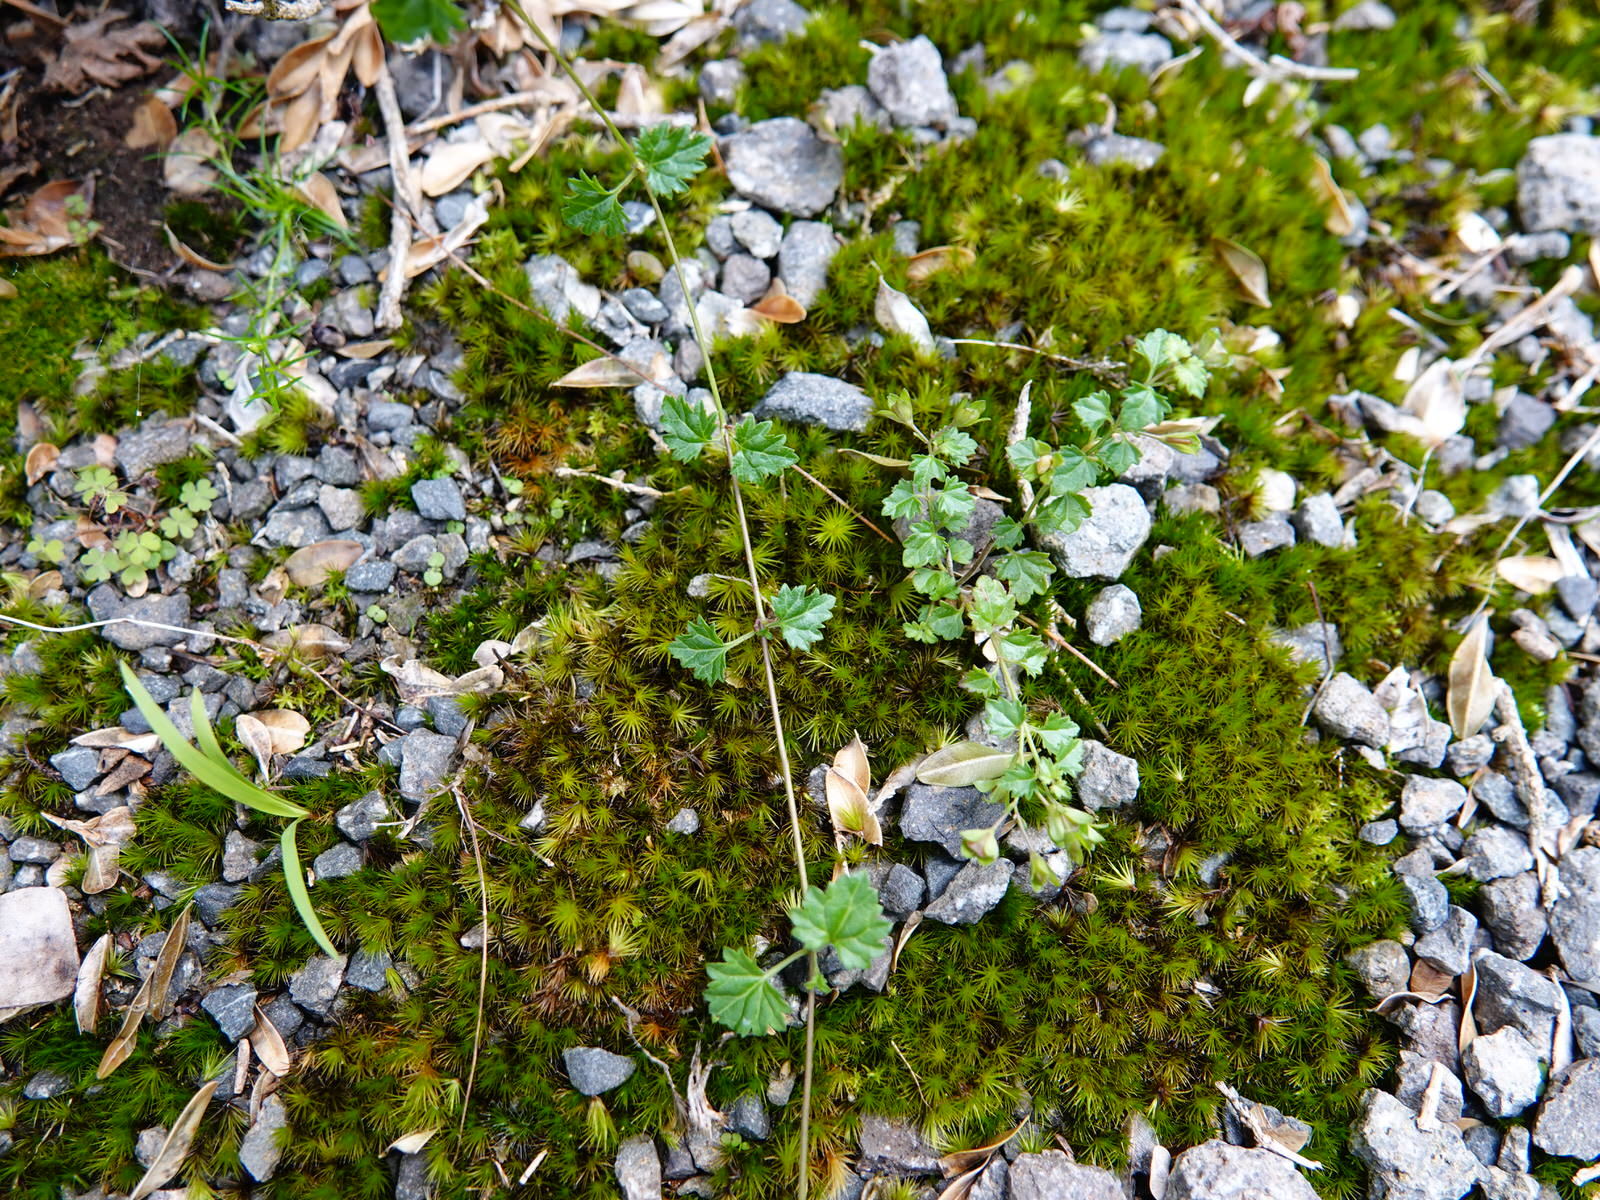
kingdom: Plantae
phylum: Tracheophyta
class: Magnoliopsida
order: Lamiales
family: Plantaginaceae
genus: Veronica
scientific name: Veronica plebeia
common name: Speedwell
